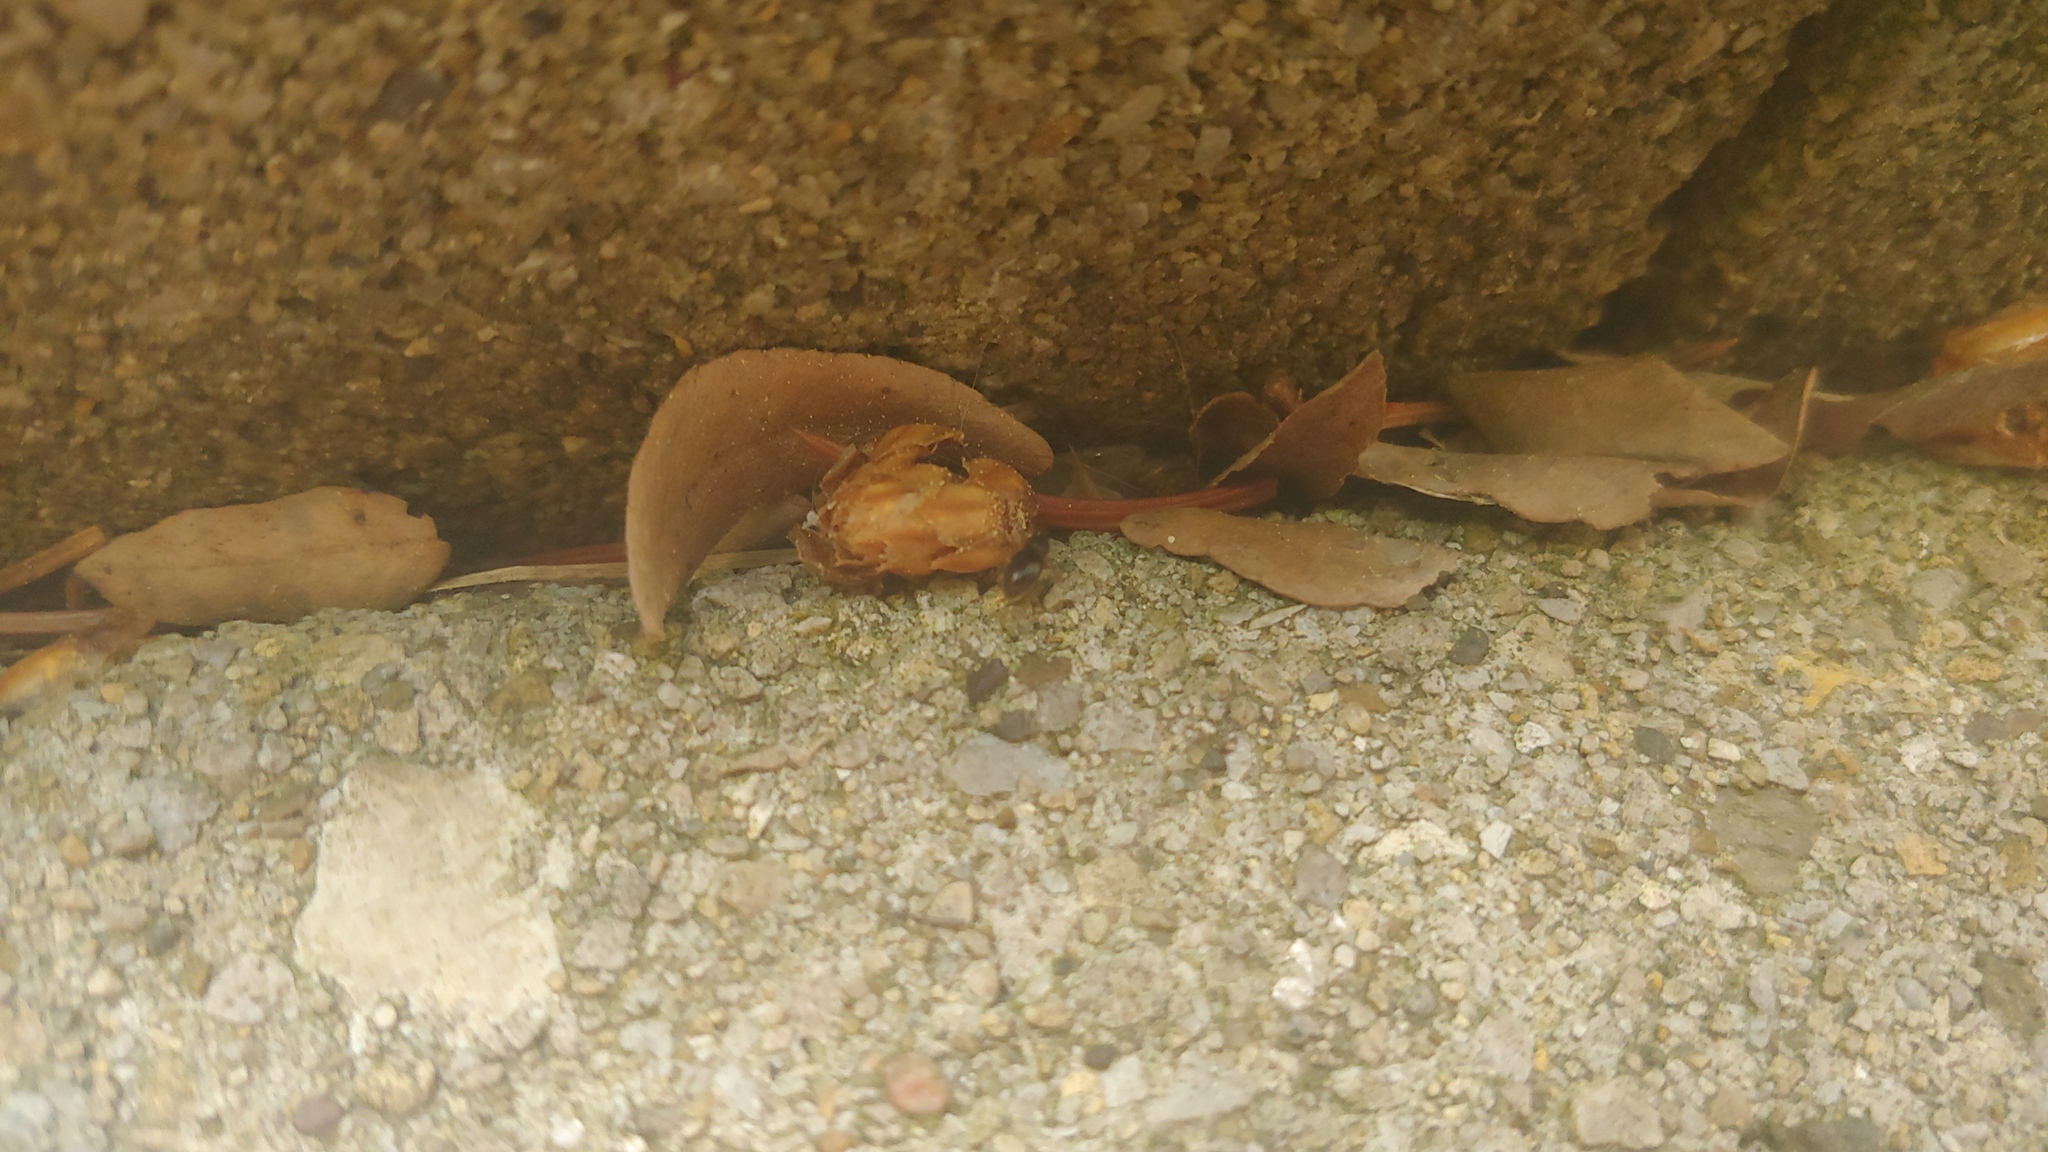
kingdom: Animalia
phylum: Arthropoda
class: Insecta
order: Coleoptera
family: Curculionidae
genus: Exomias
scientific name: Exomias pellucidus
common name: Hairy spider weevil
